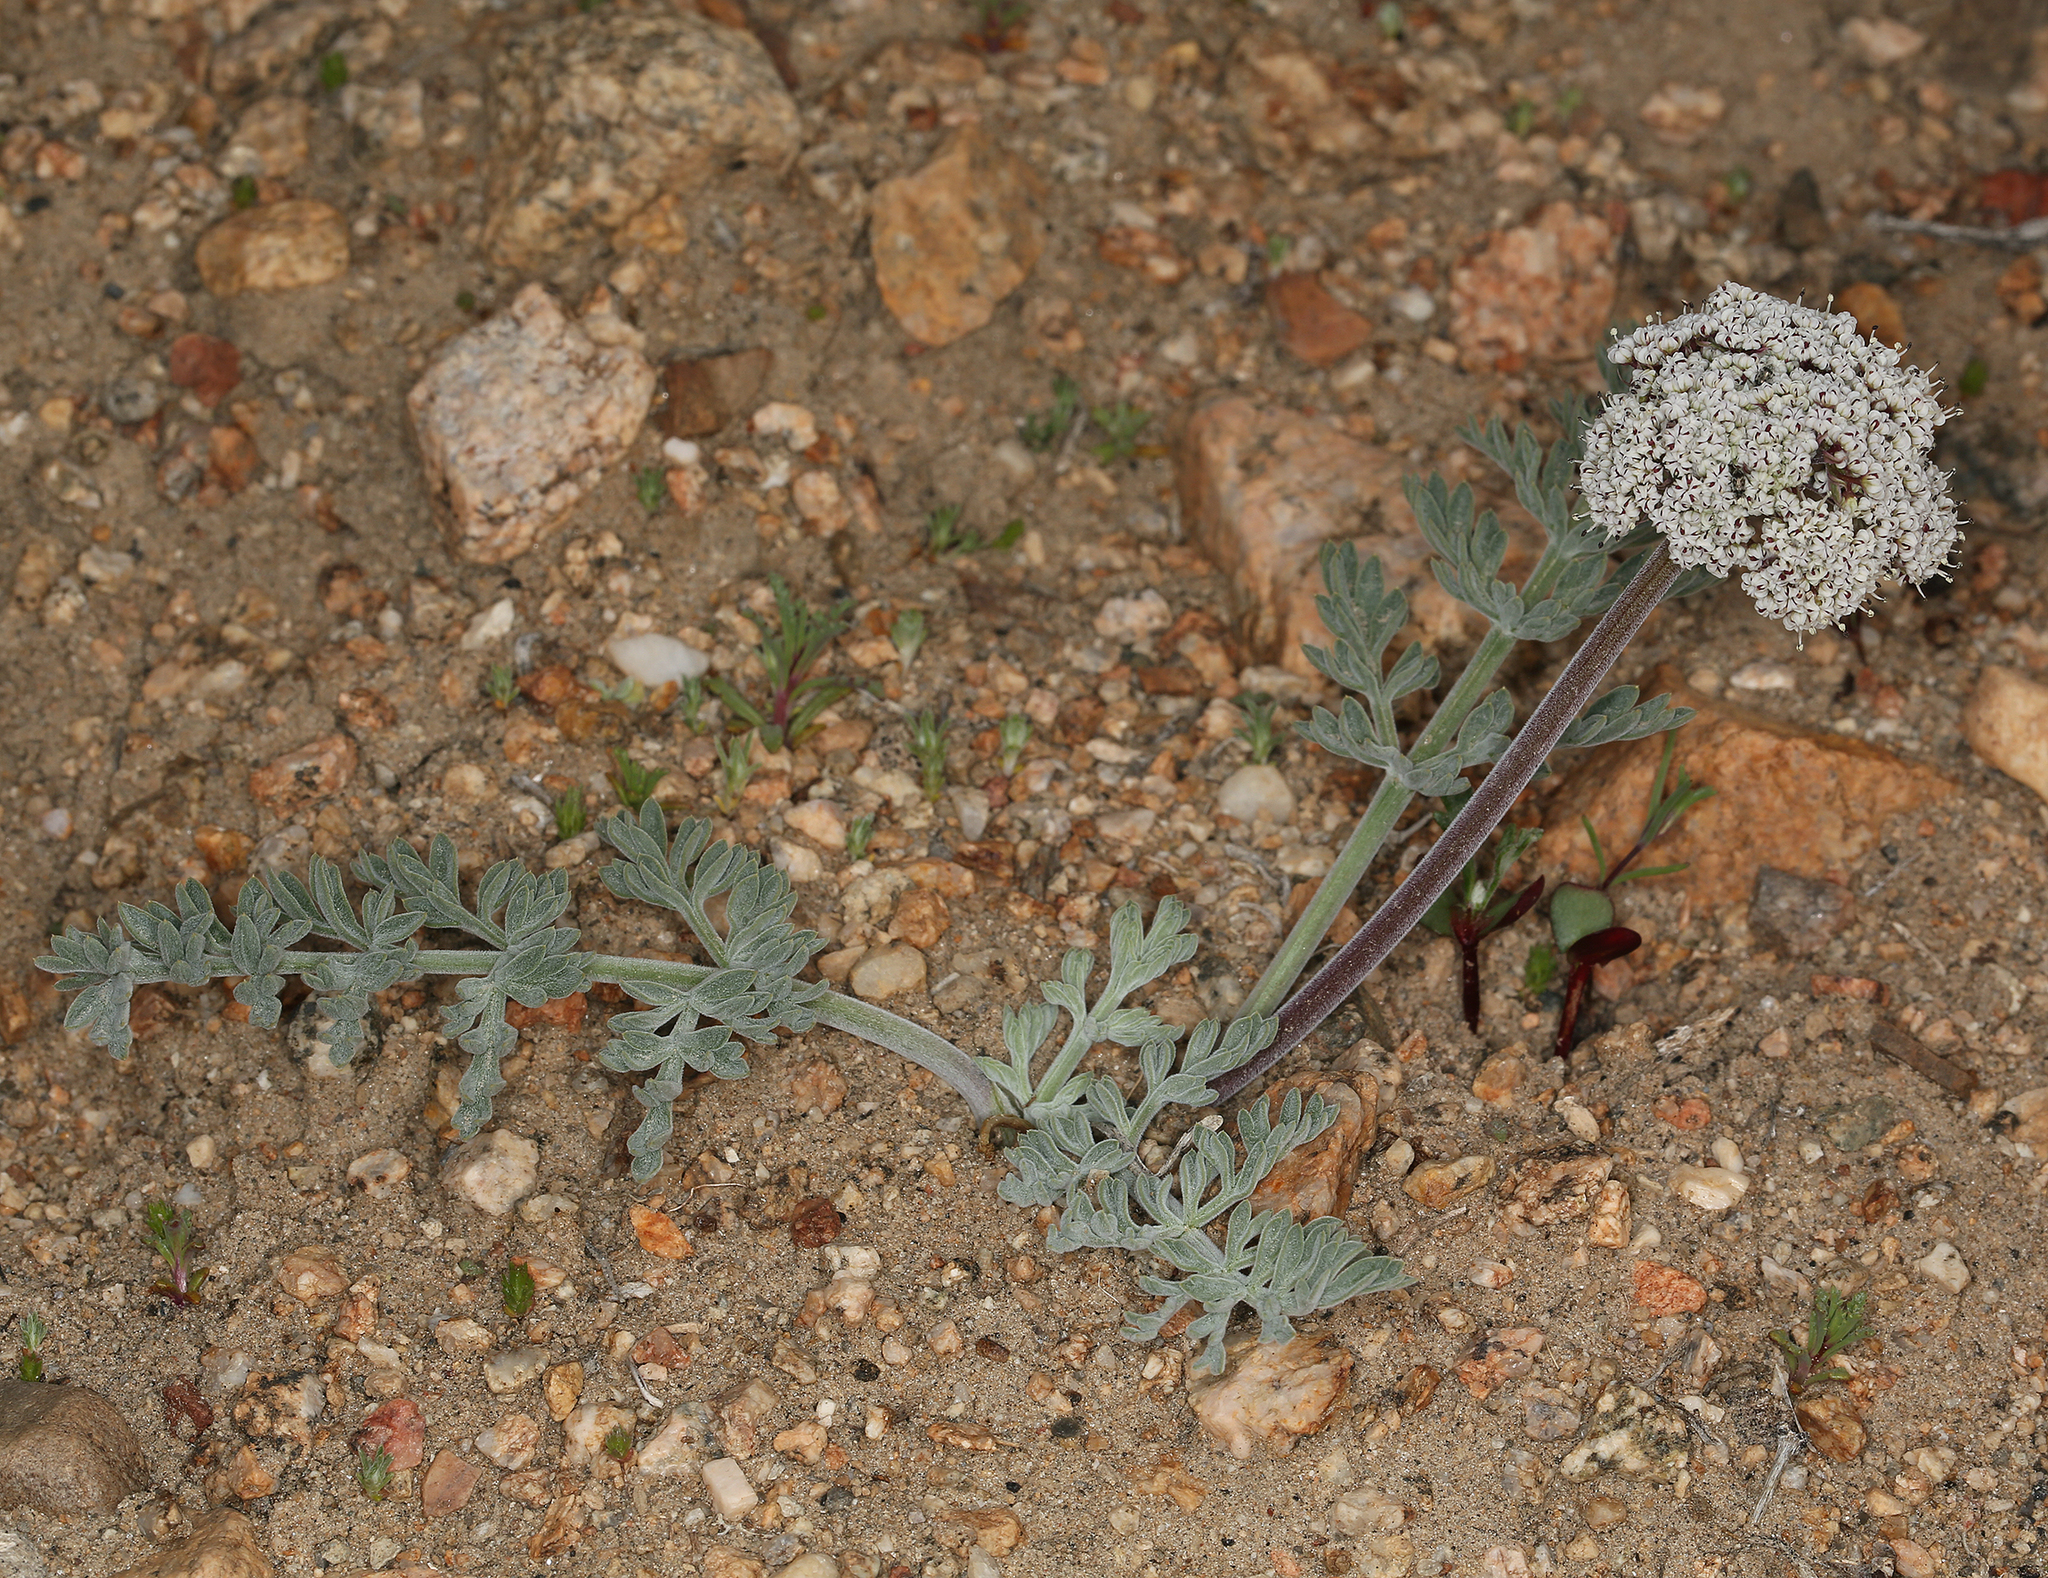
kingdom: Plantae
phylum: Tracheophyta
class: Magnoliopsida
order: Apiales
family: Apiaceae
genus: Lomatium
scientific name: Lomatium nevadense
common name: Nevada lomatium
